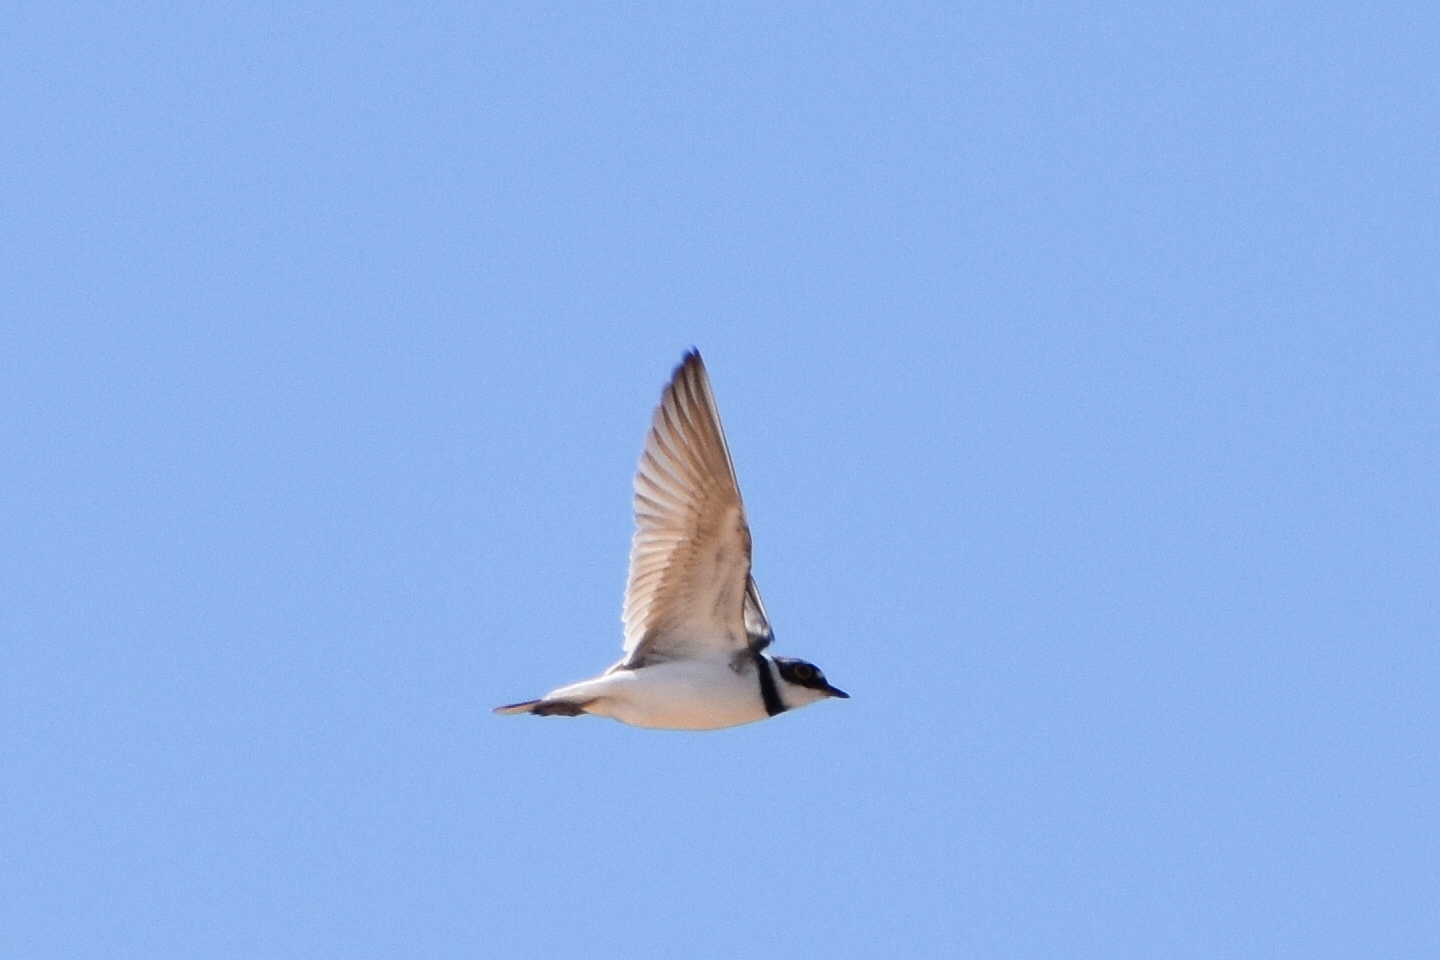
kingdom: Animalia
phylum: Chordata
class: Aves
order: Charadriiformes
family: Charadriidae
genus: Charadrius
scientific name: Charadrius dubius
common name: Little ringed plover
